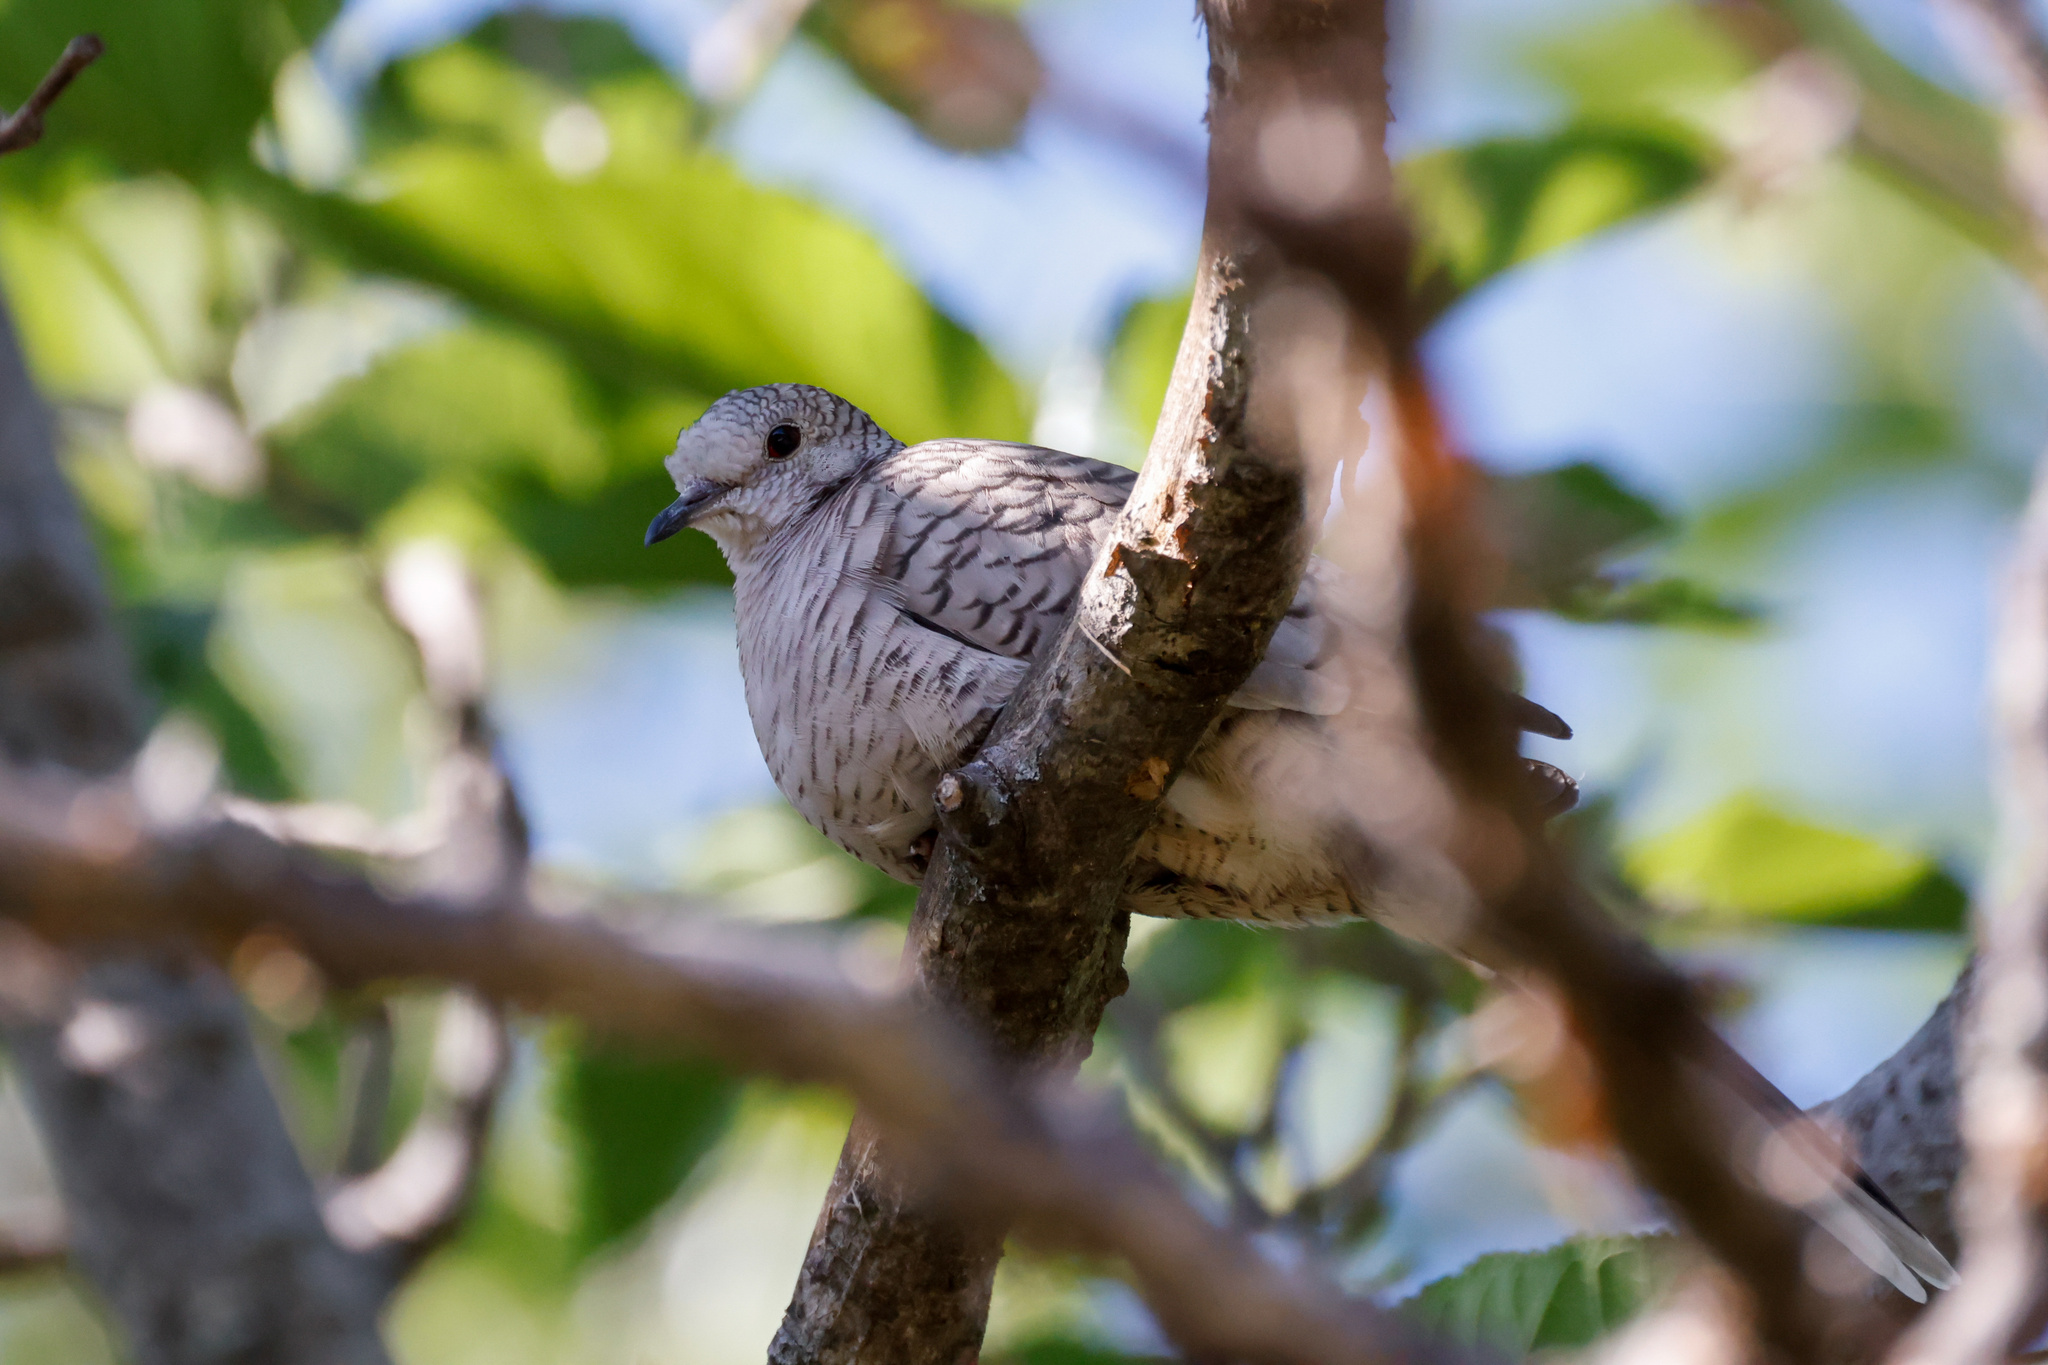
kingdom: Animalia
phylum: Chordata
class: Aves
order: Columbiformes
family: Columbidae
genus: Columbina
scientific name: Columbina inca
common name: Inca dove
